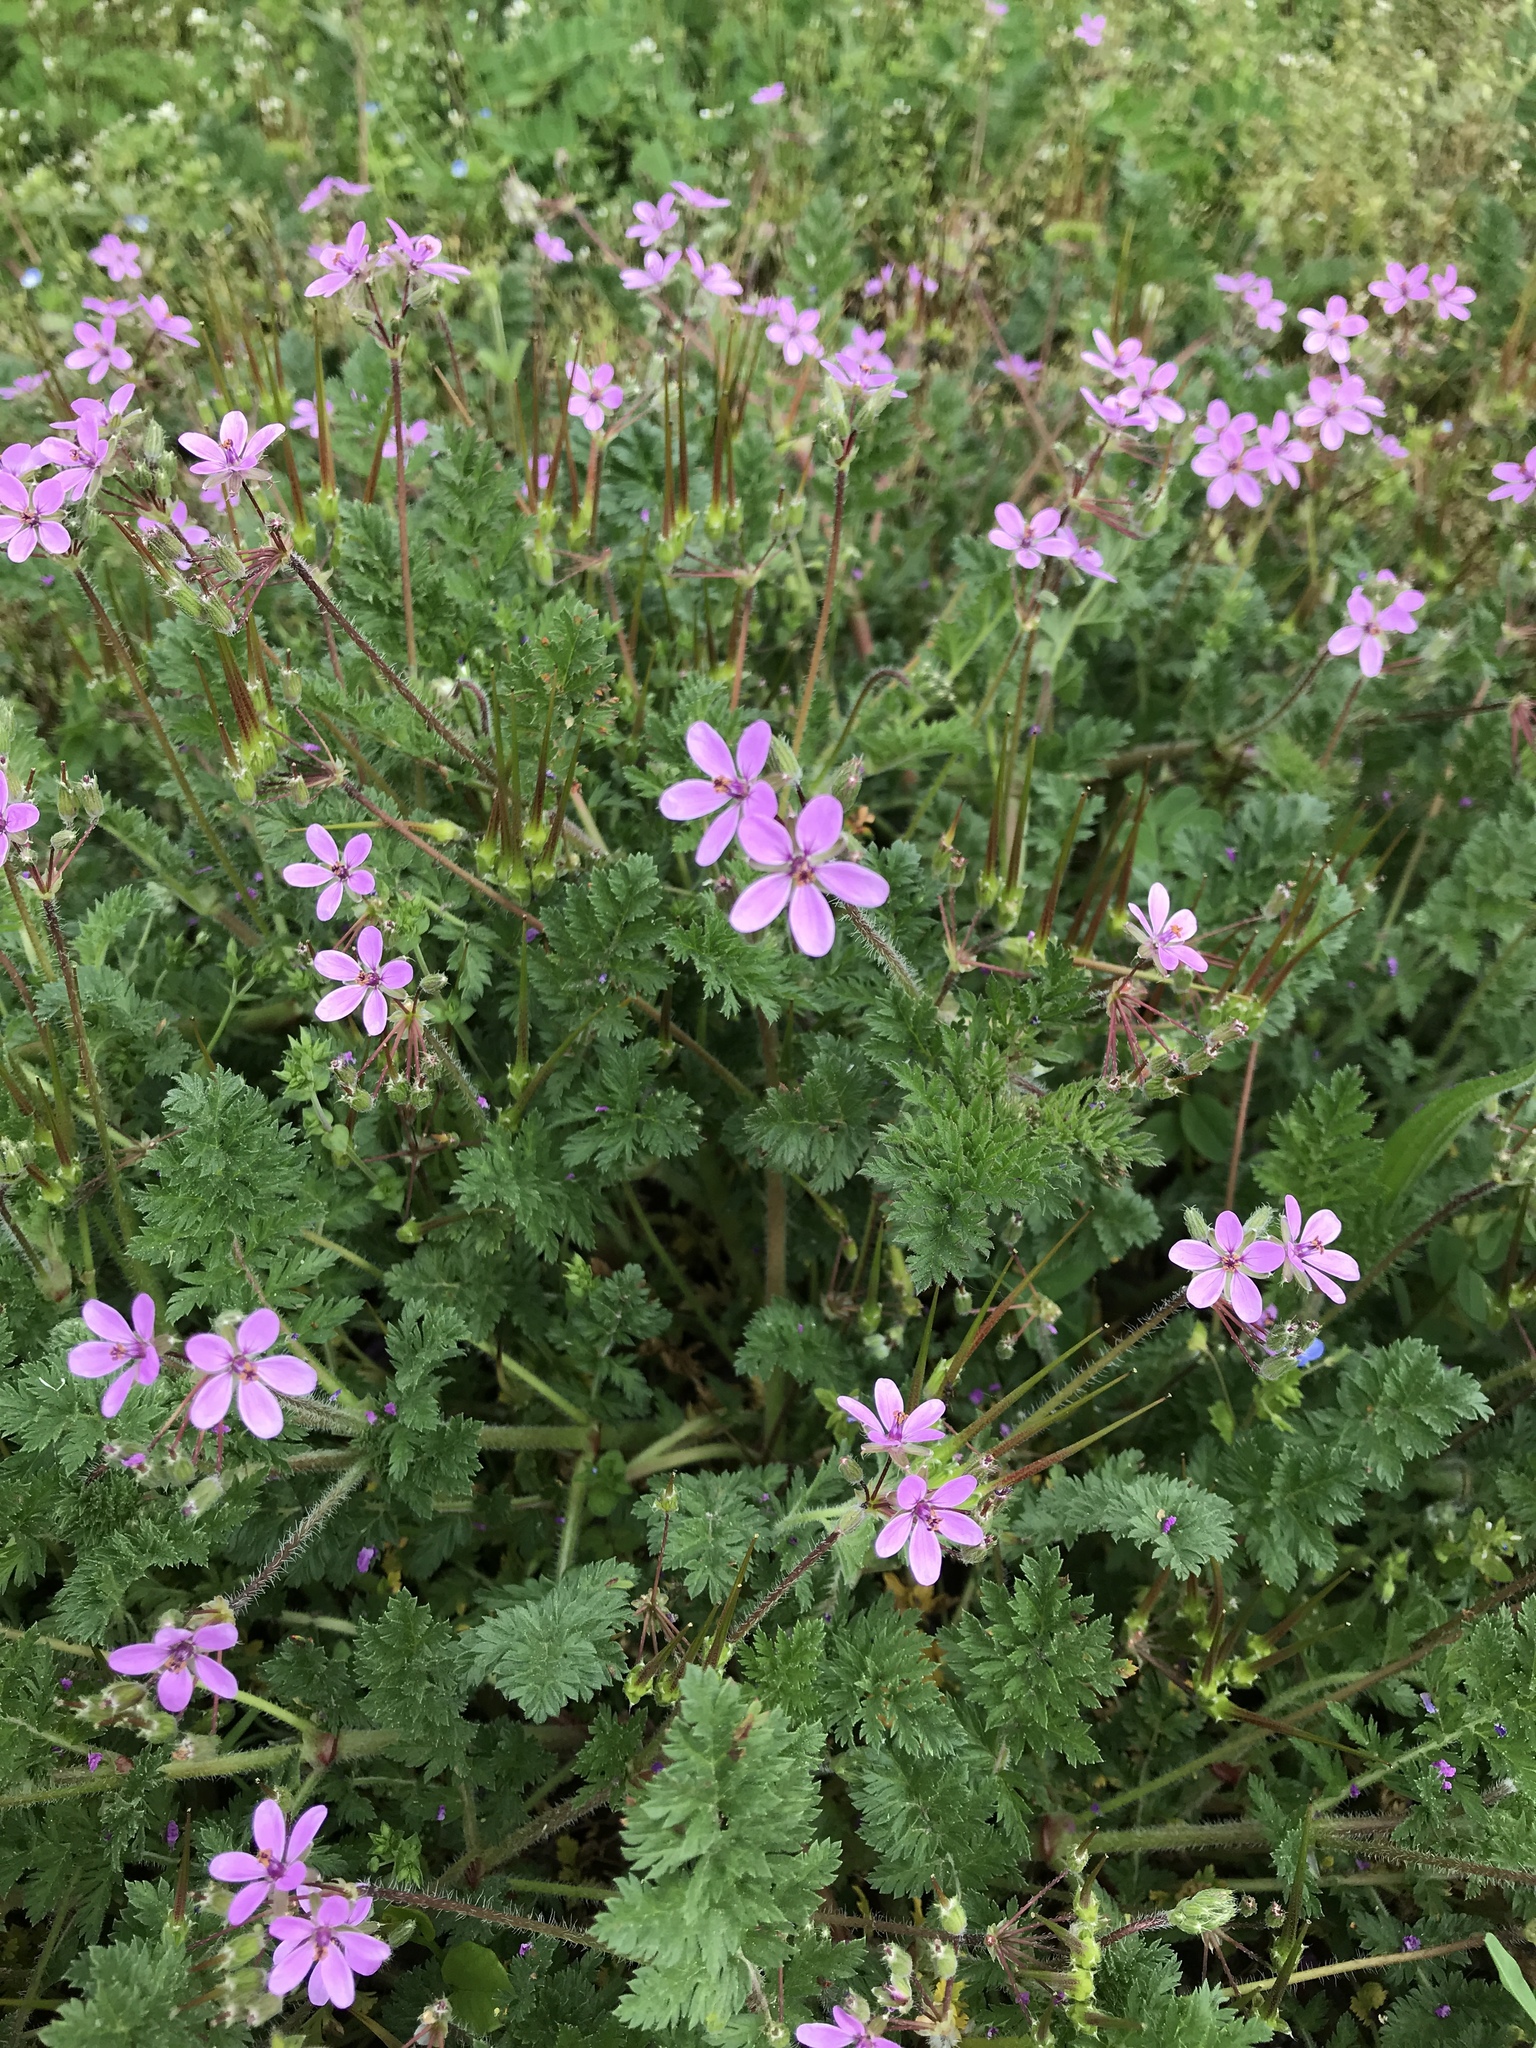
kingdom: Plantae
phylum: Tracheophyta
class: Magnoliopsida
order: Geraniales
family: Geraniaceae
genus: Erodium
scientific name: Erodium cicutarium
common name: Common stork's-bill
